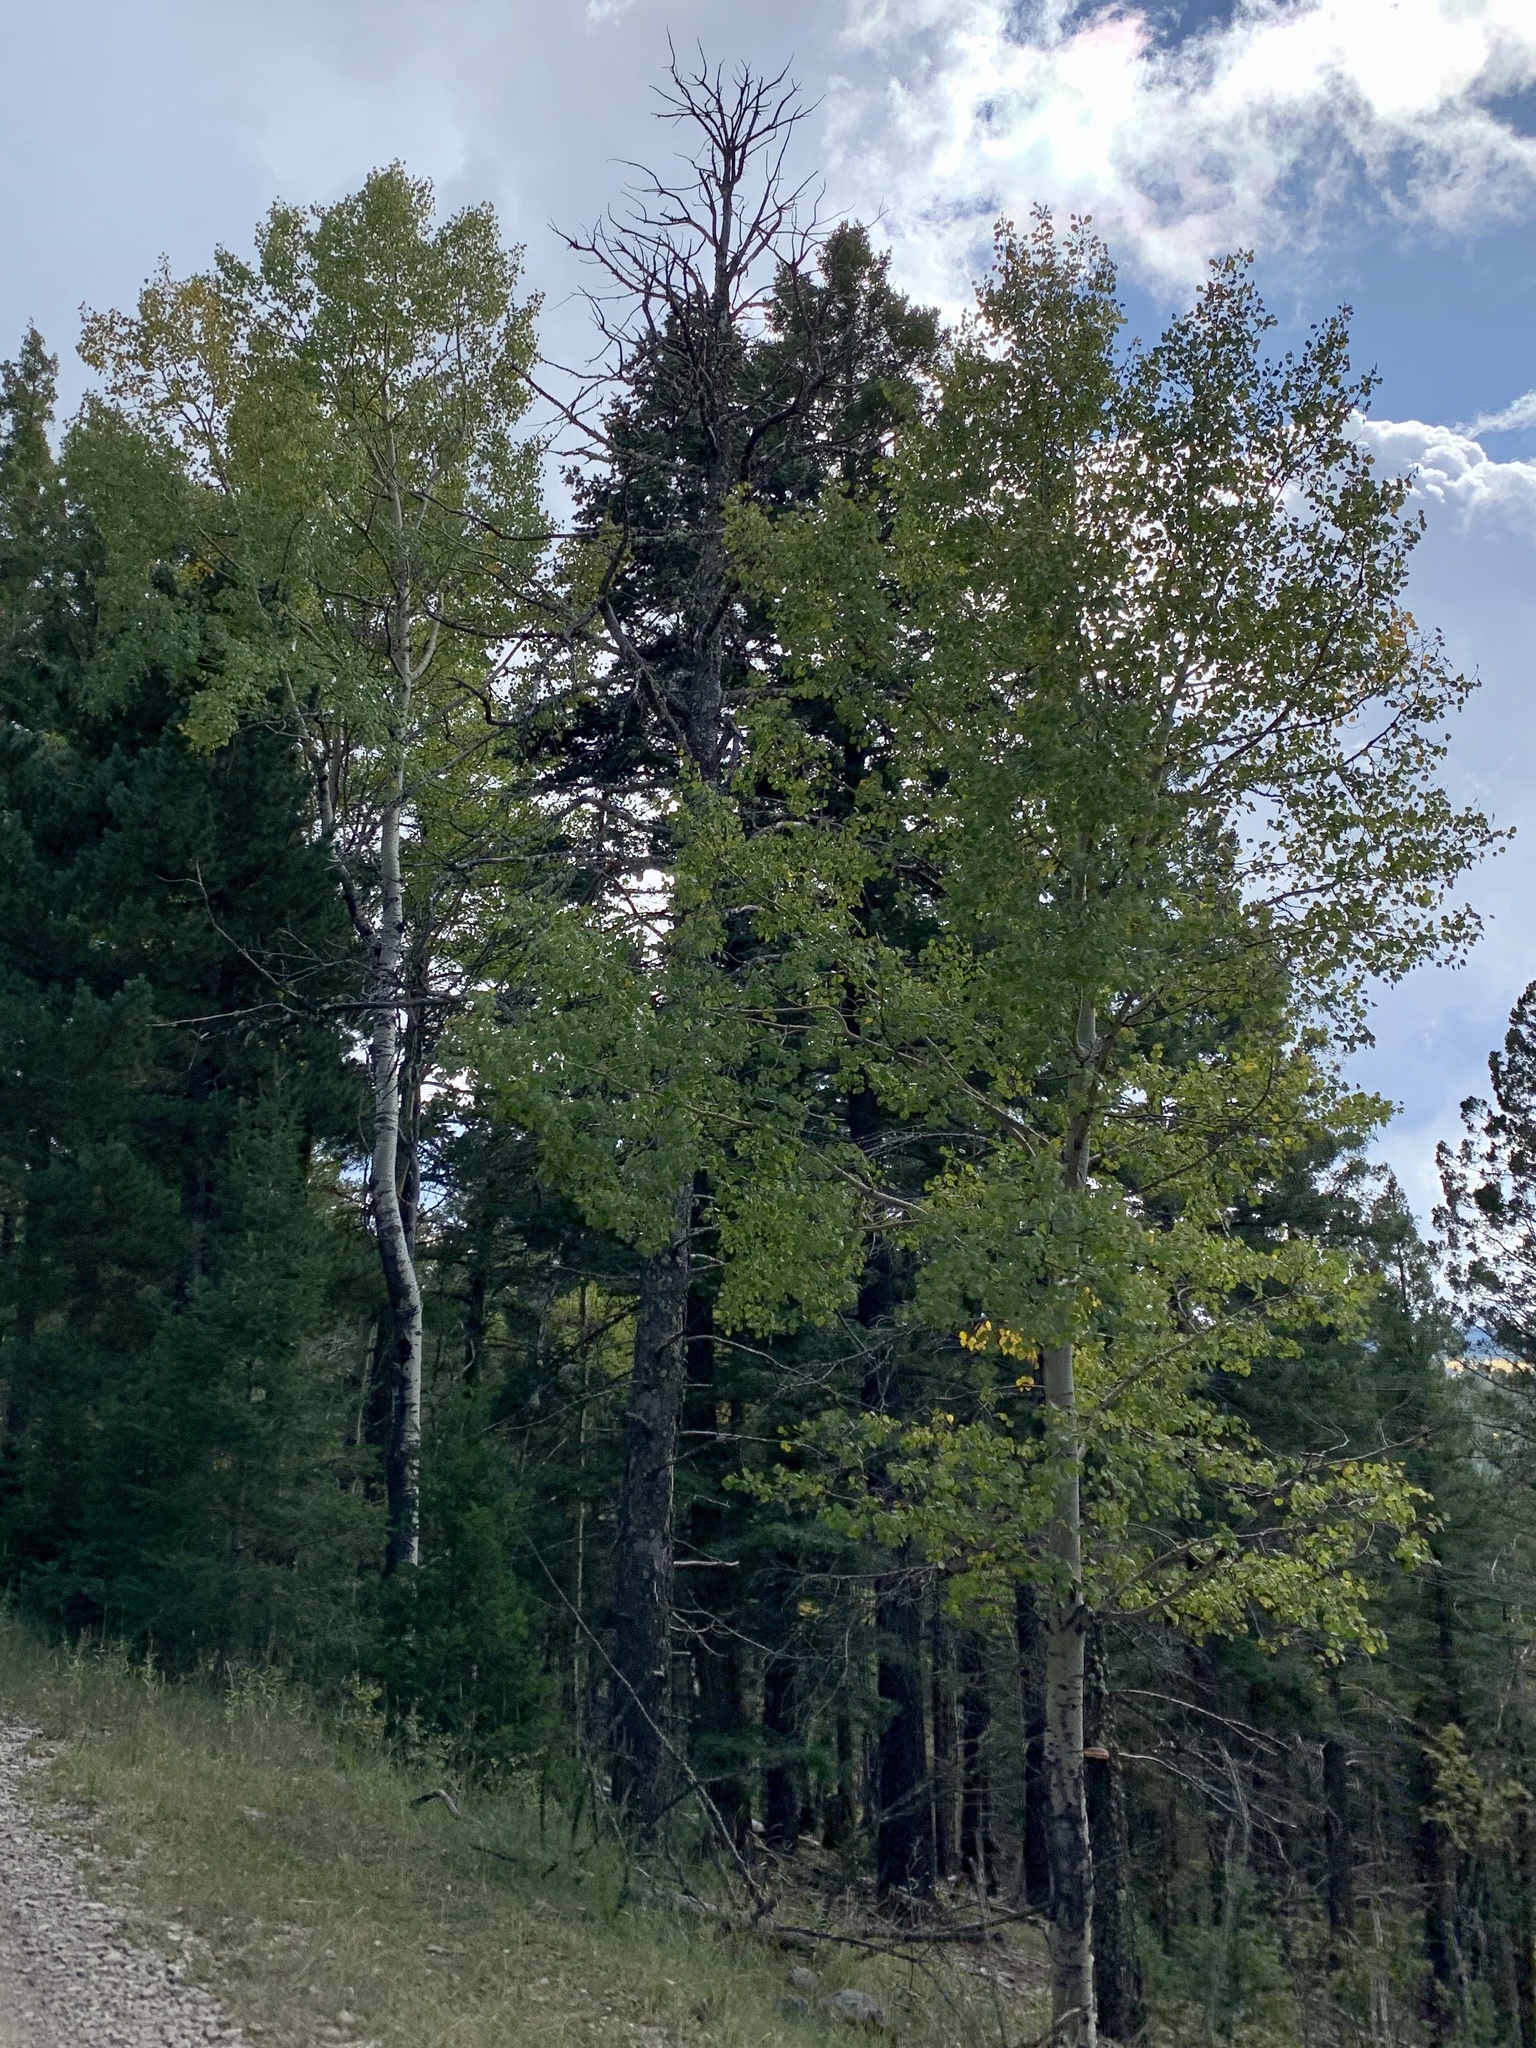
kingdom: Plantae
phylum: Tracheophyta
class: Magnoliopsida
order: Malpighiales
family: Salicaceae
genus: Populus
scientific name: Populus tremuloides
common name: Quaking aspen
